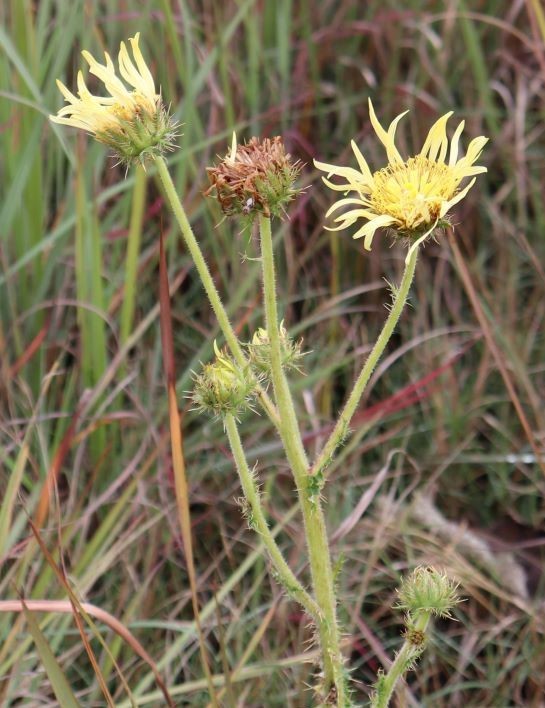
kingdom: Plantae
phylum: Tracheophyta
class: Magnoliopsida
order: Asterales
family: Asteraceae
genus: Berkheya
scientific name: Berkheya radula
